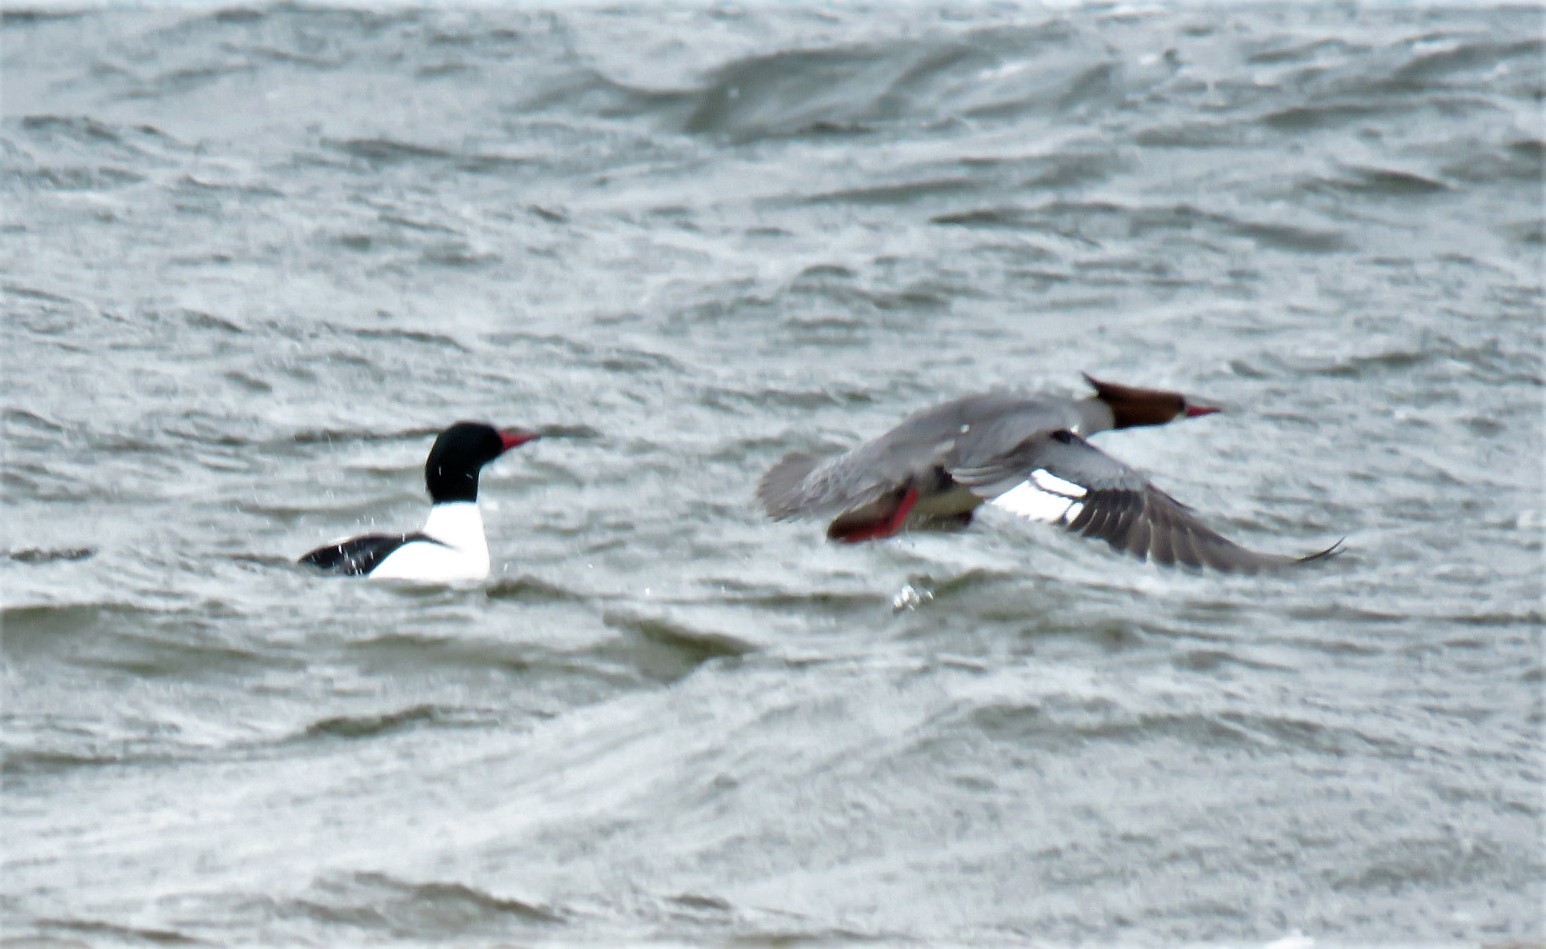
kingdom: Animalia
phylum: Chordata
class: Aves
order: Anseriformes
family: Anatidae
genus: Mergus
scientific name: Mergus merganser
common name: Common merganser
